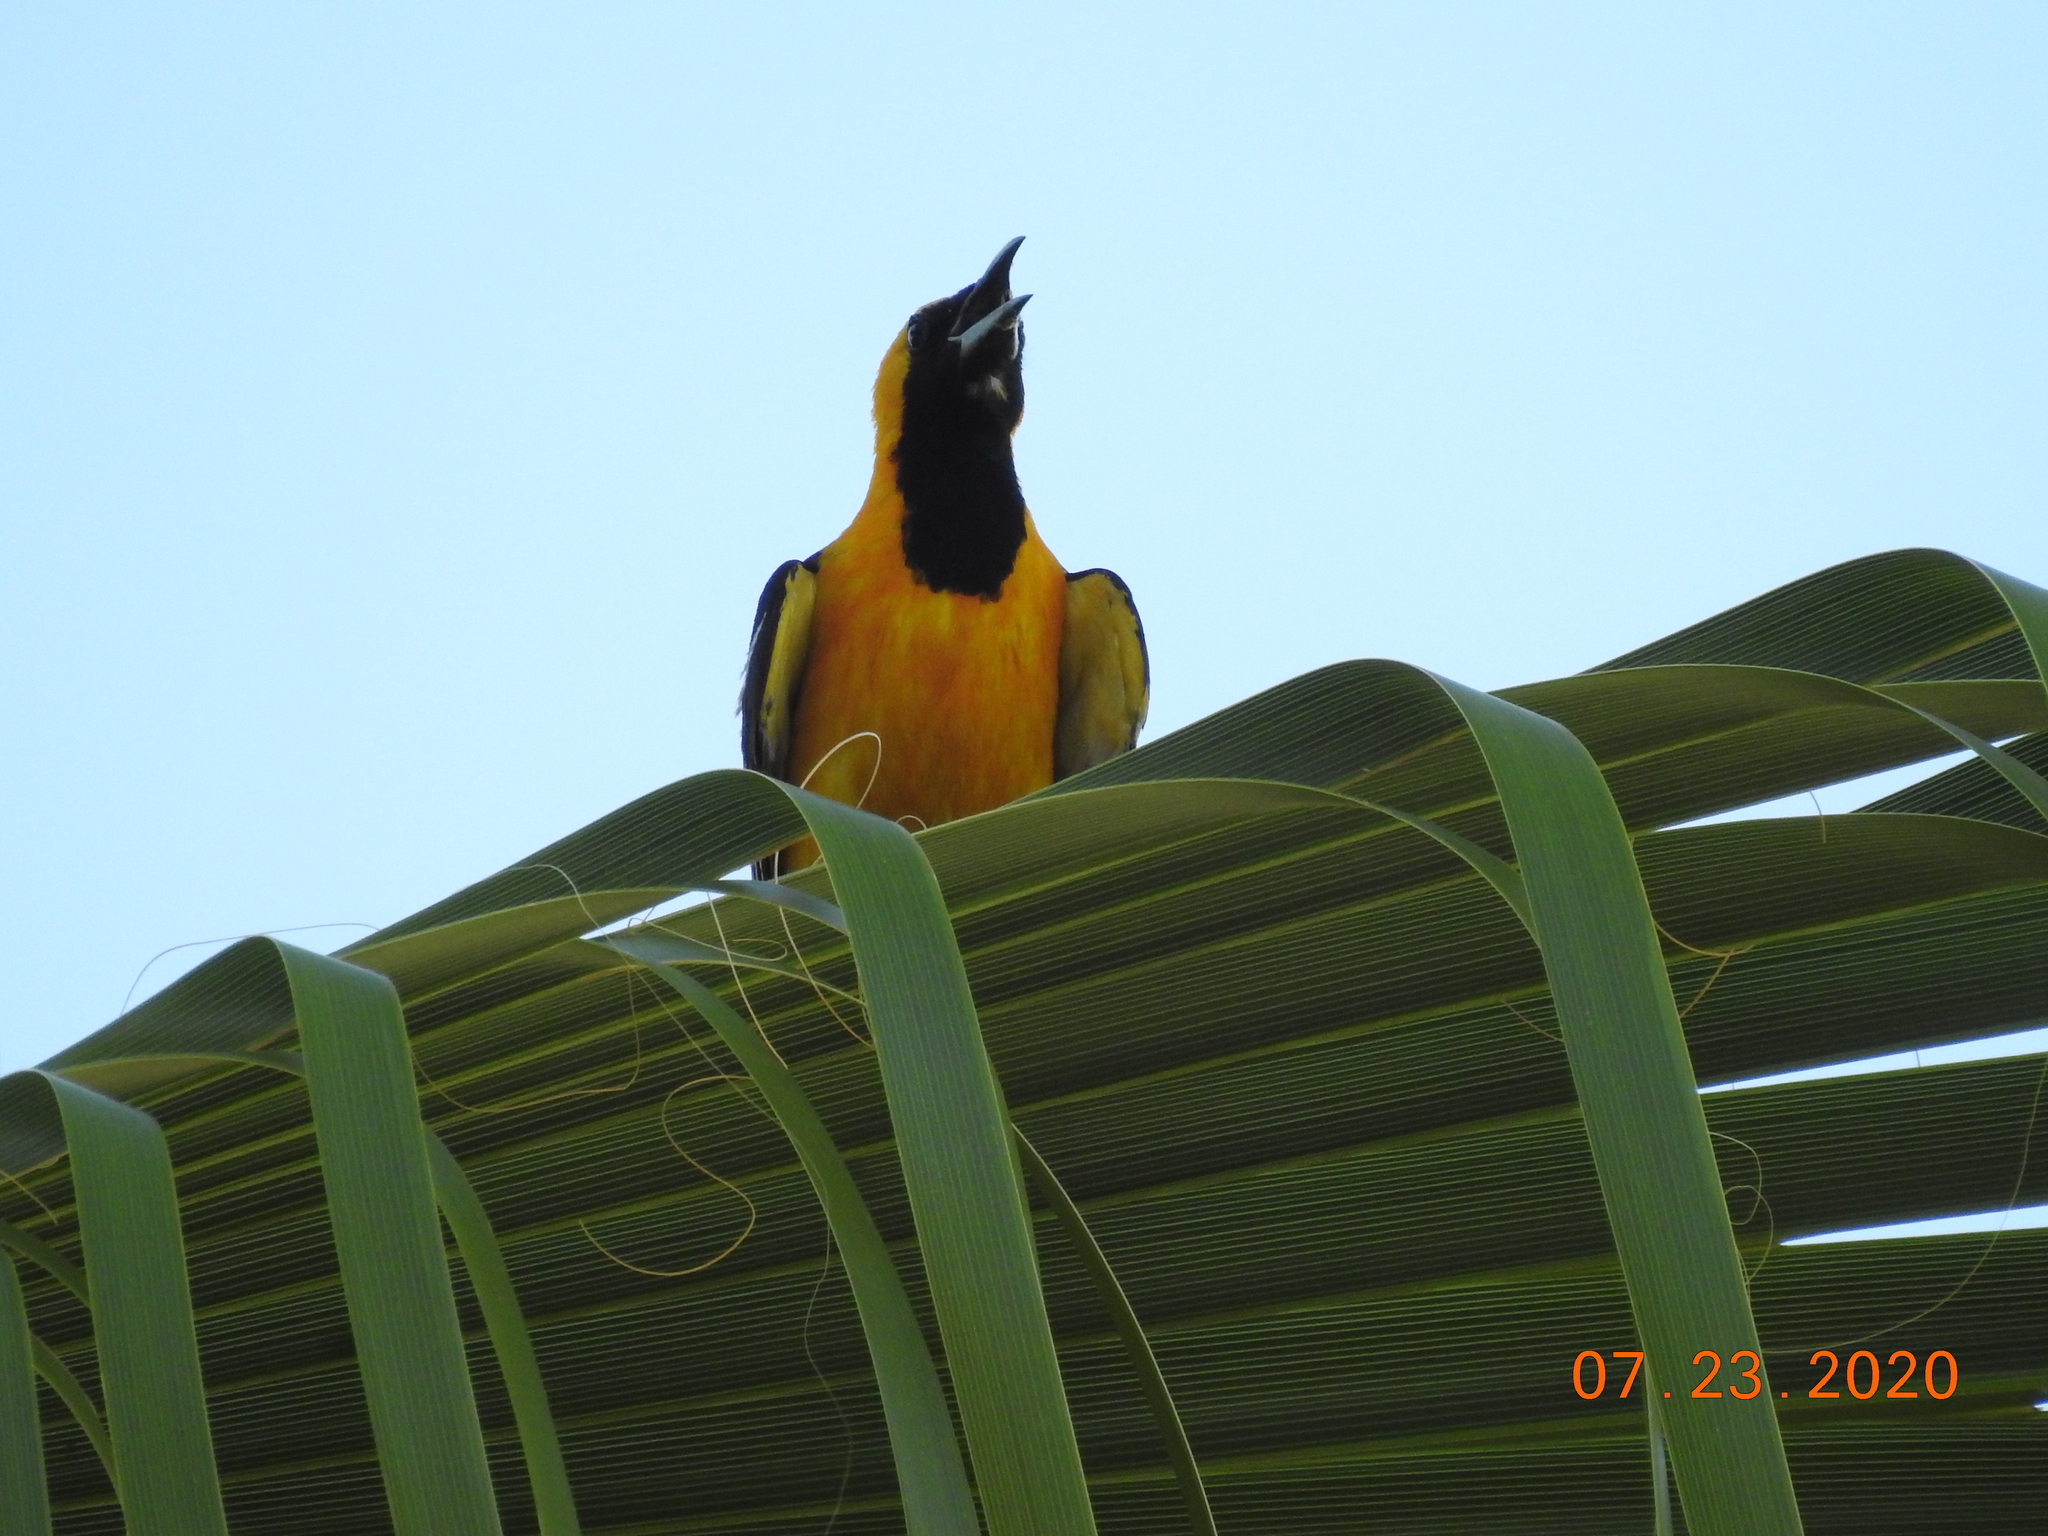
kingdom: Animalia
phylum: Chordata
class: Aves
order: Passeriformes
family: Icteridae
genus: Icterus
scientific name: Icterus cucullatus
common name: Hooded oriole
